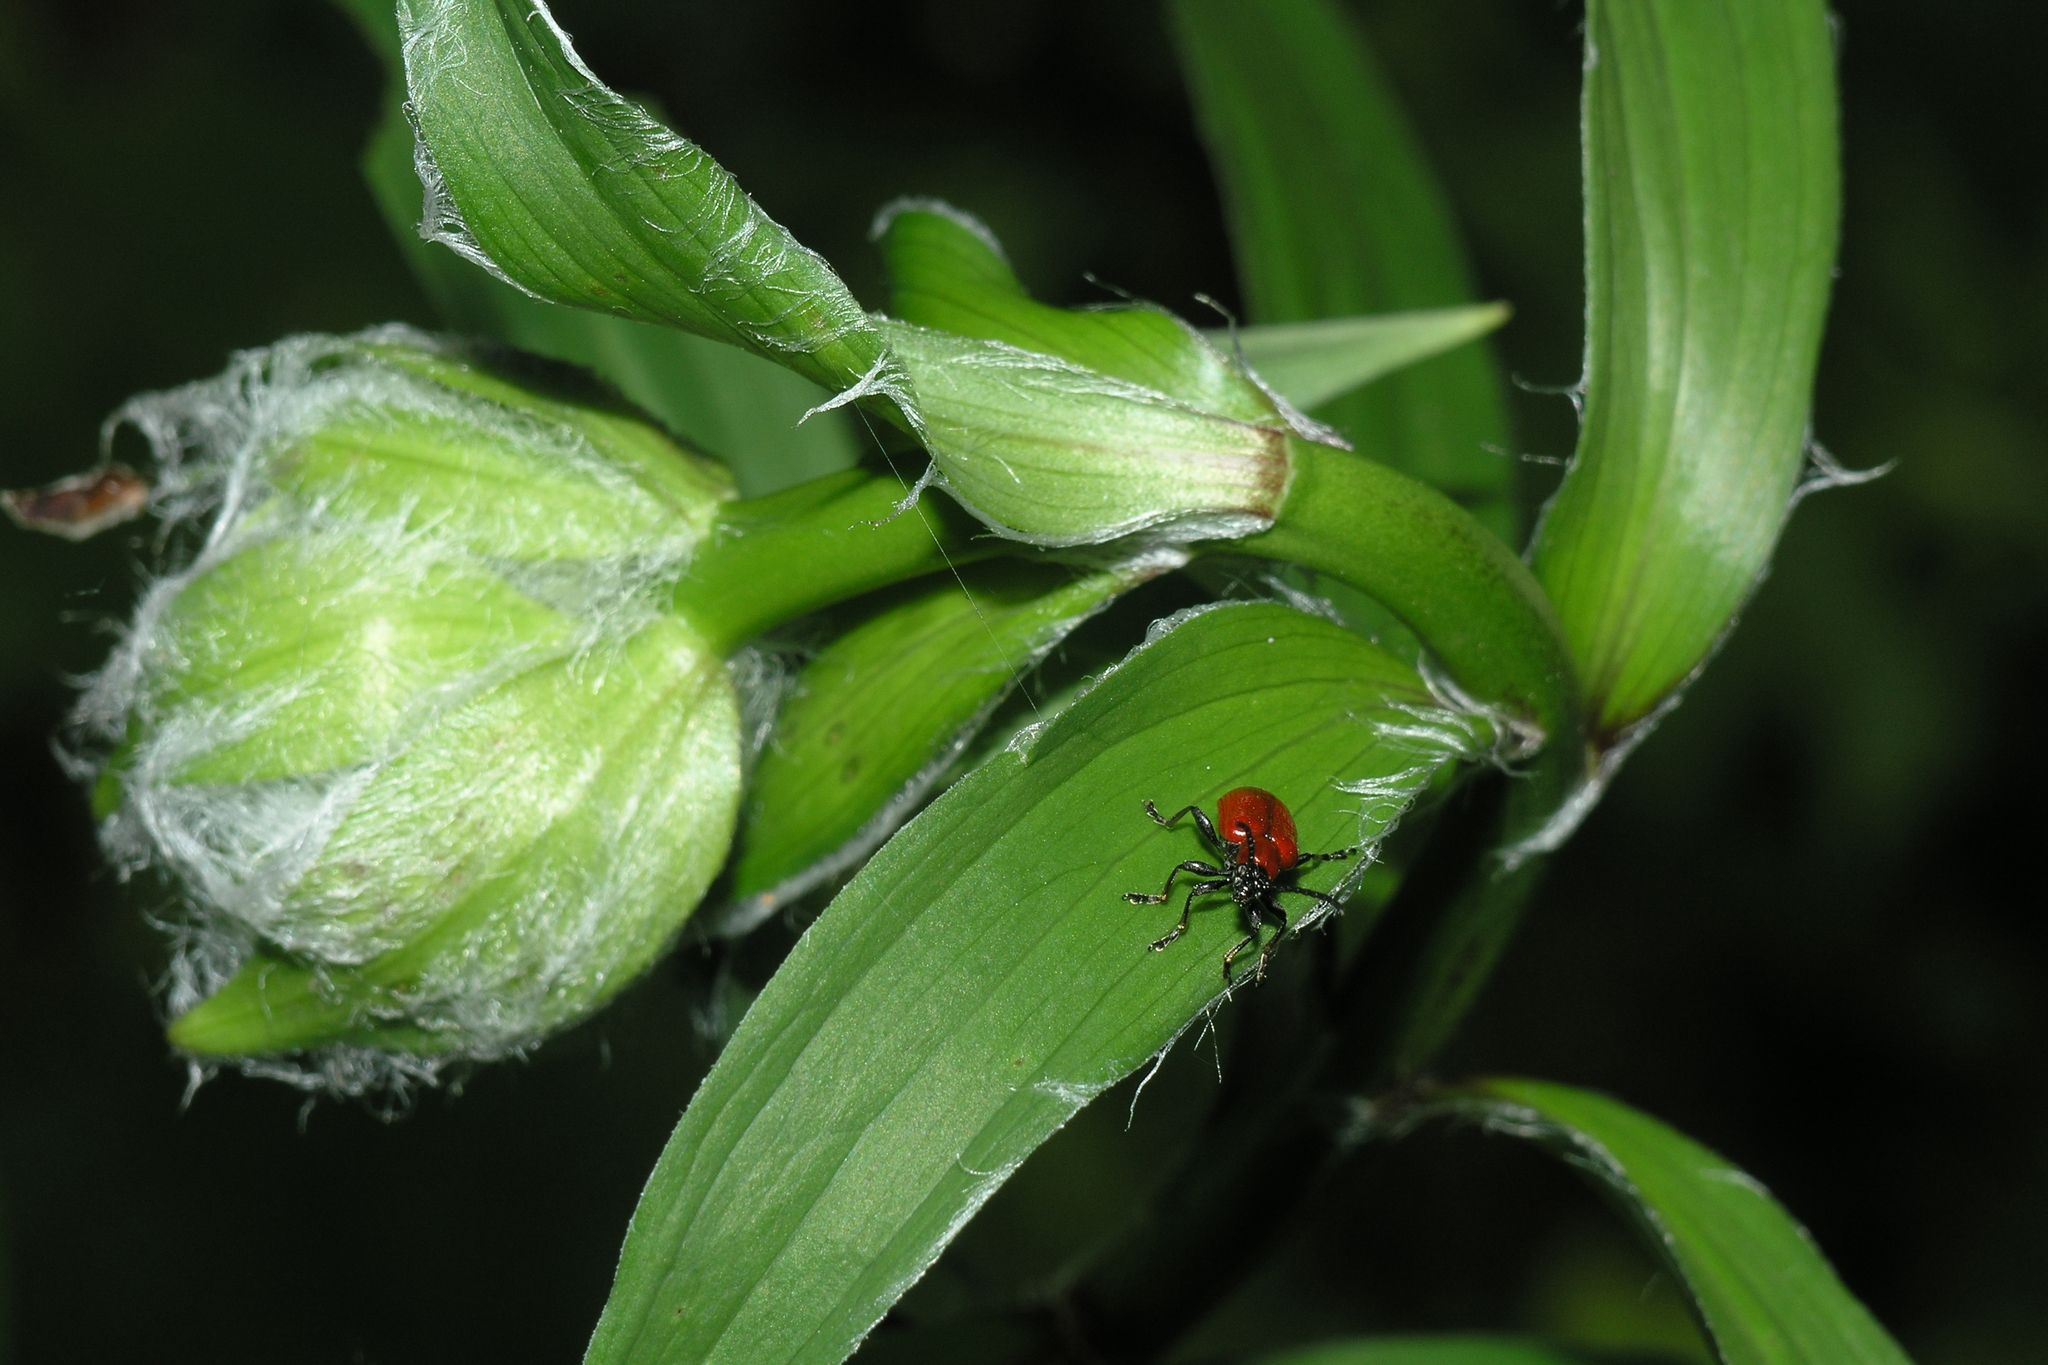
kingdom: Animalia
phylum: Arthropoda
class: Insecta
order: Coleoptera
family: Chrysomelidae
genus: Lilioceris
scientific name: Lilioceris lilii
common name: Lily beetle
